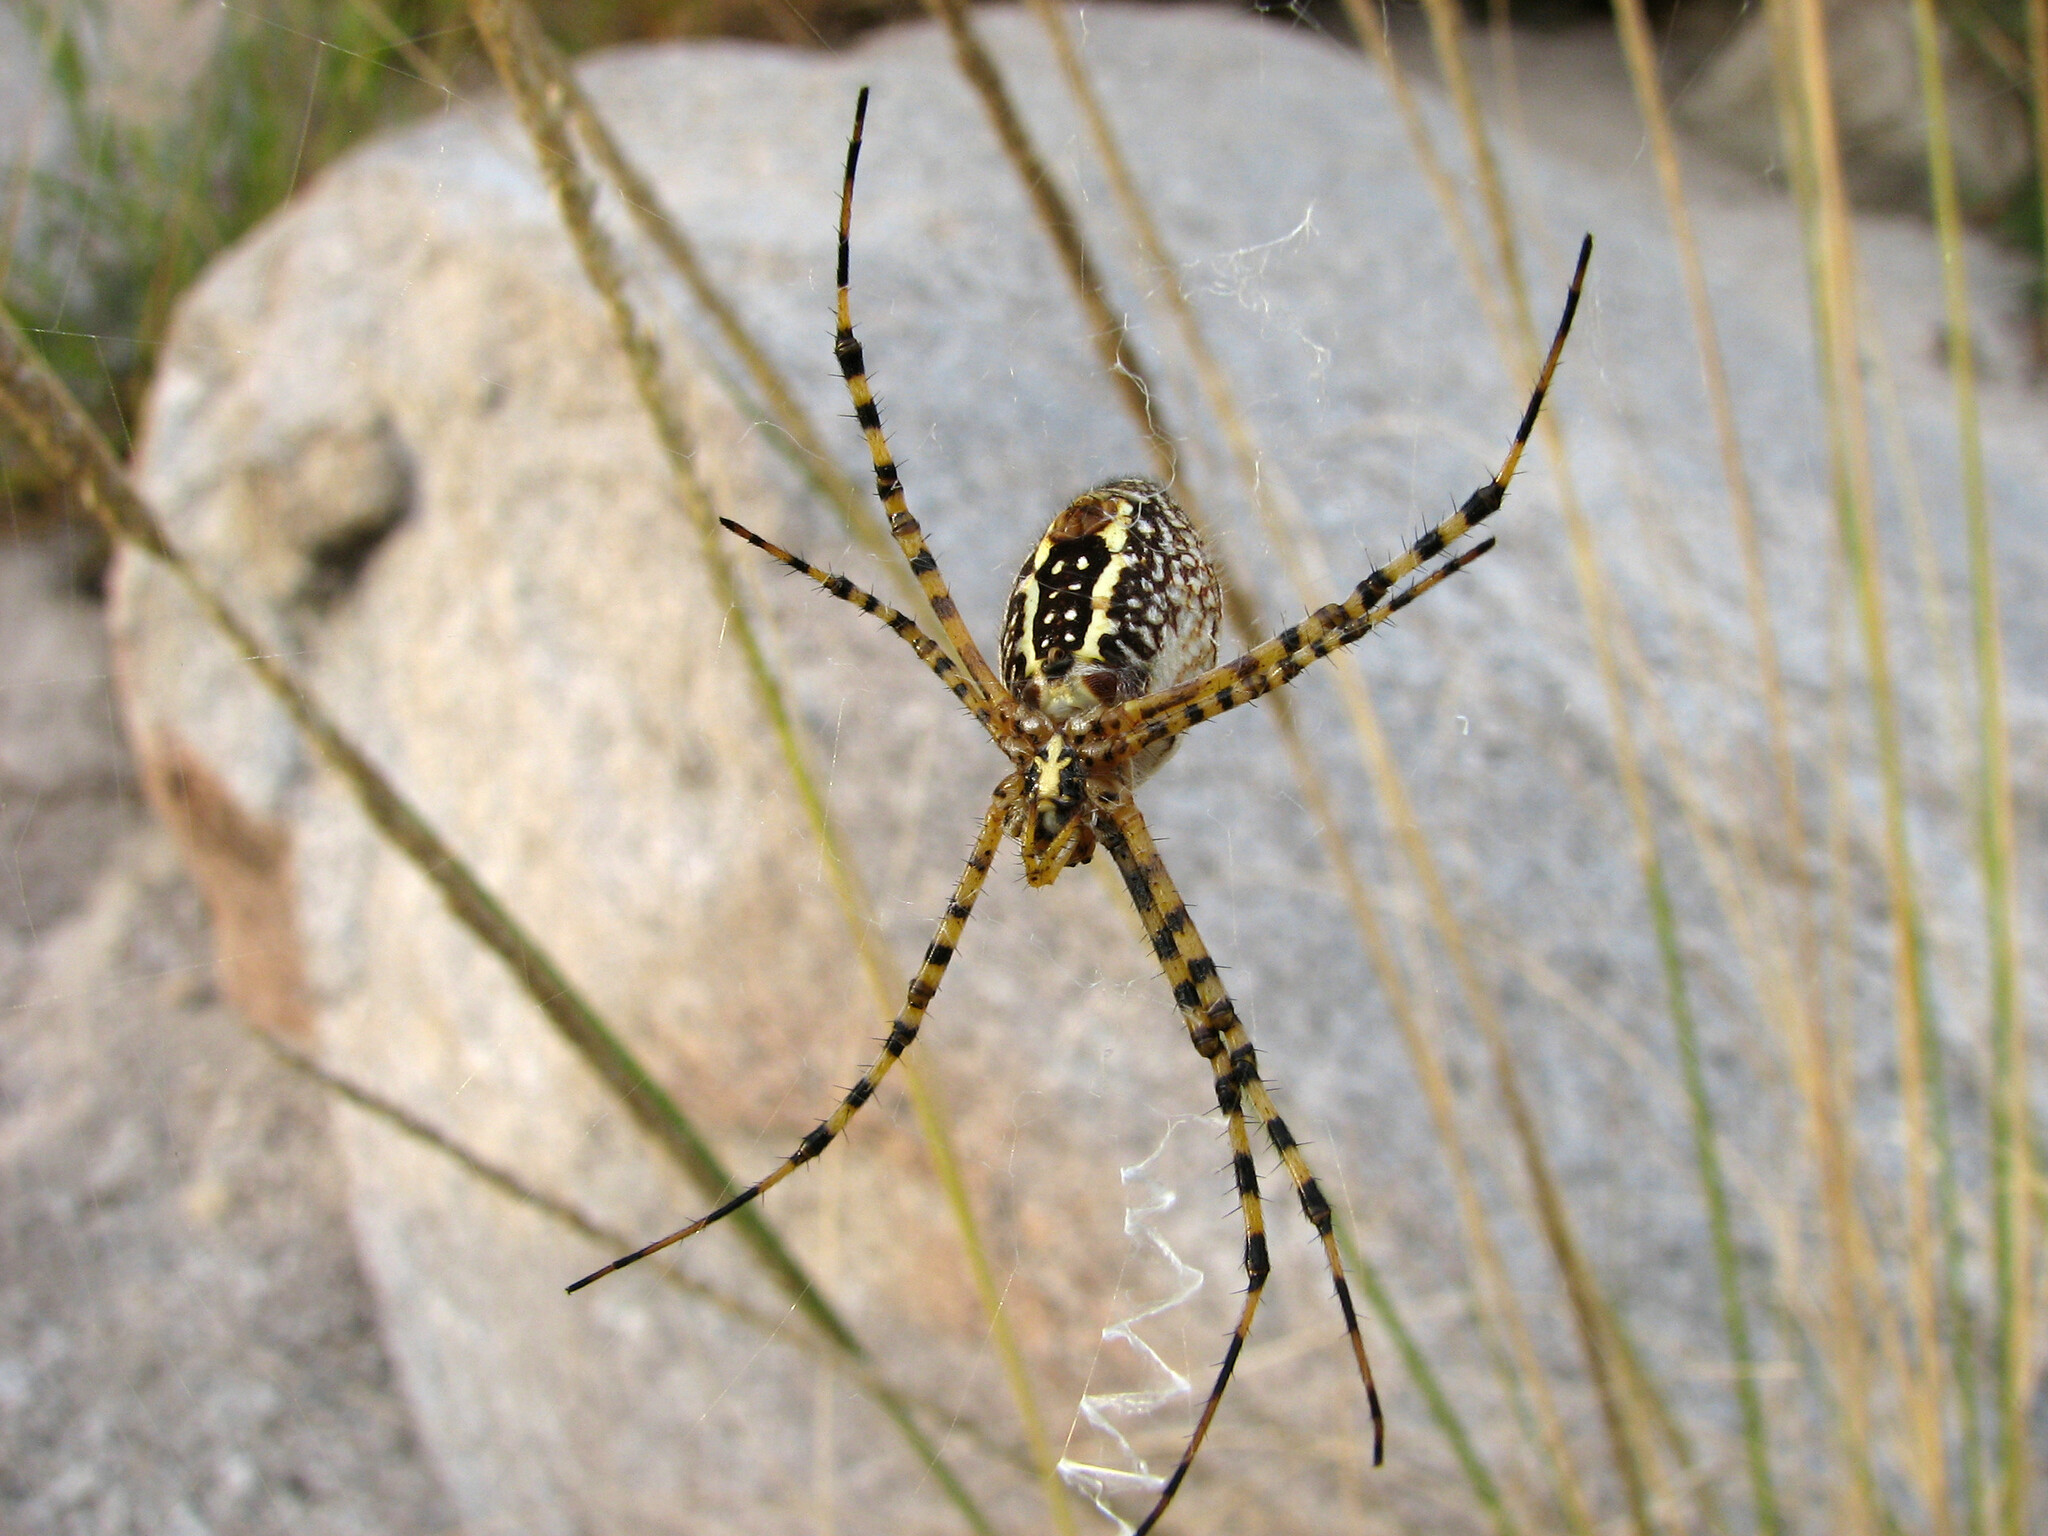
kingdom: Animalia
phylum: Arthropoda
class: Arachnida
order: Araneae
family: Araneidae
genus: Argiope
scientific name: Argiope trifasciata
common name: Banded garden spider
